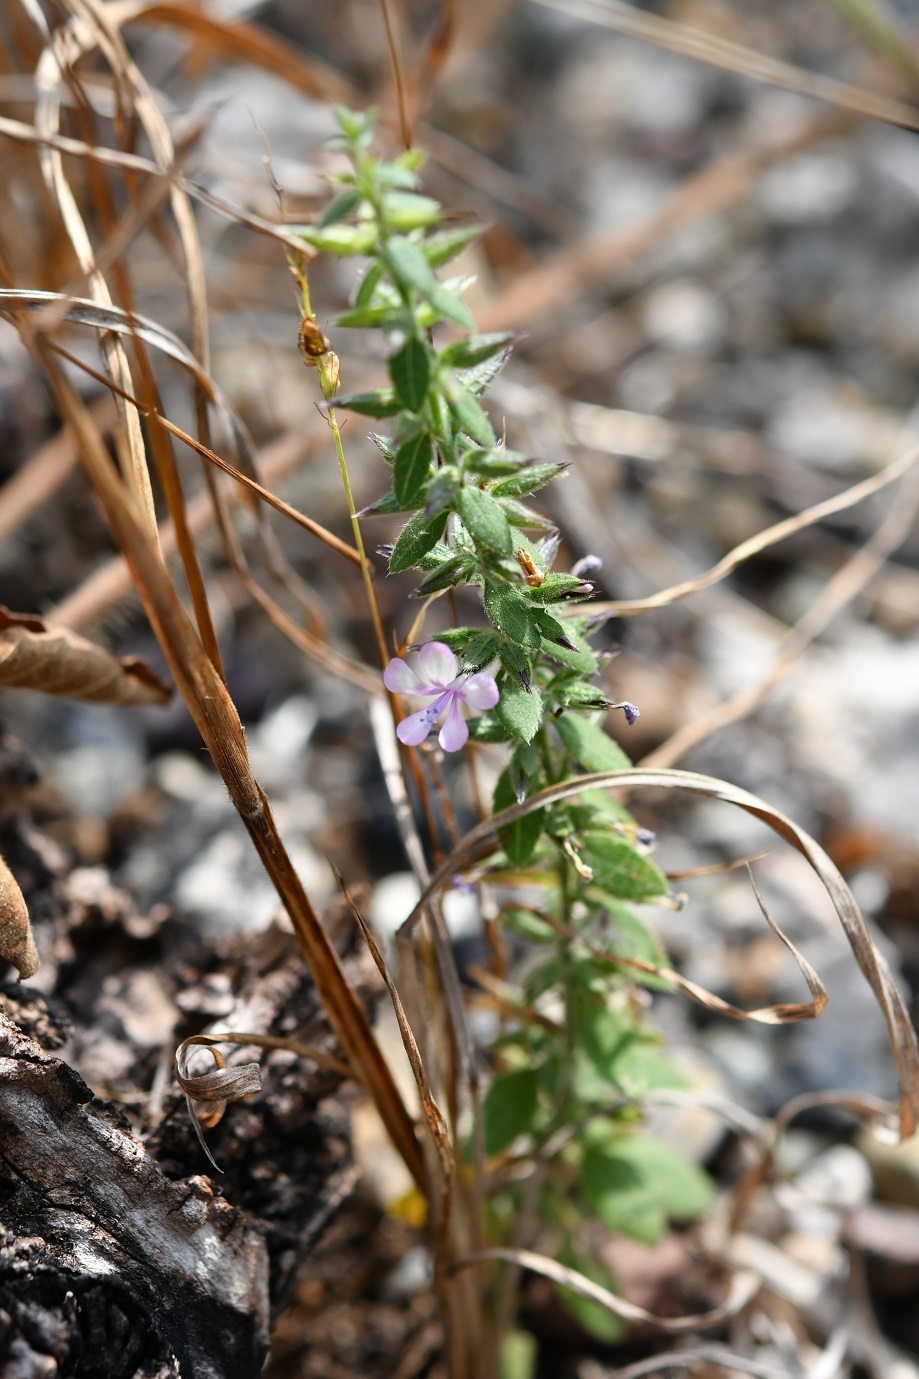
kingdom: Plantae
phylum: Tracheophyta
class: Magnoliopsida
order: Ericales
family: Polemoniaceae
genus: Loeselia
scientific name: Loeselia pumila
